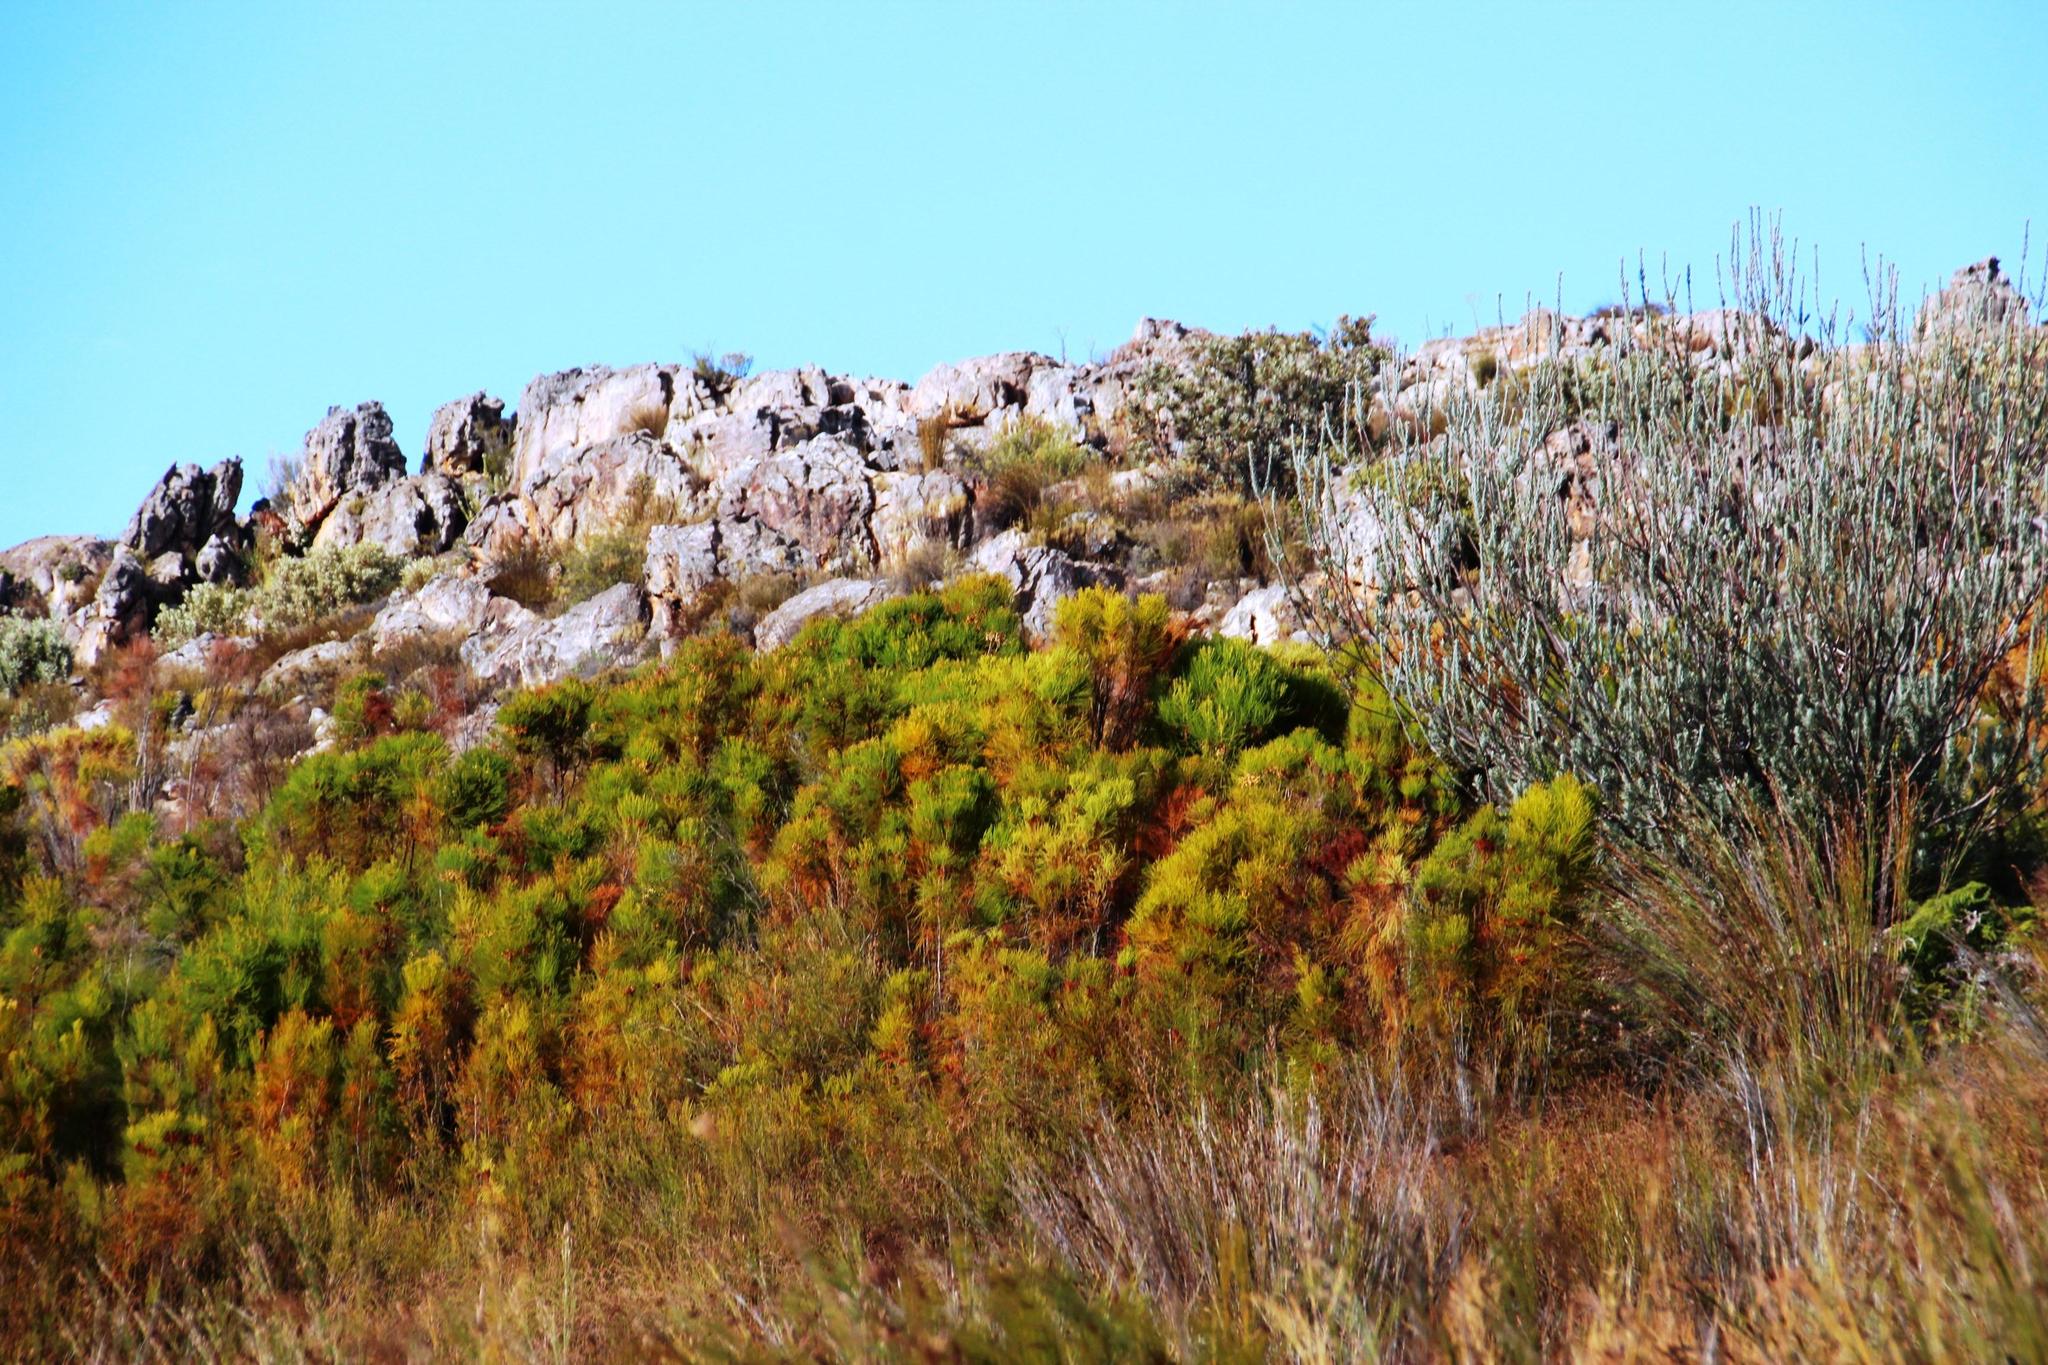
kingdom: Plantae
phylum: Tracheophyta
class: Magnoliopsida
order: Bruniales
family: Bruniaceae
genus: Berzelia
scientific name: Berzelia lanuginosa
